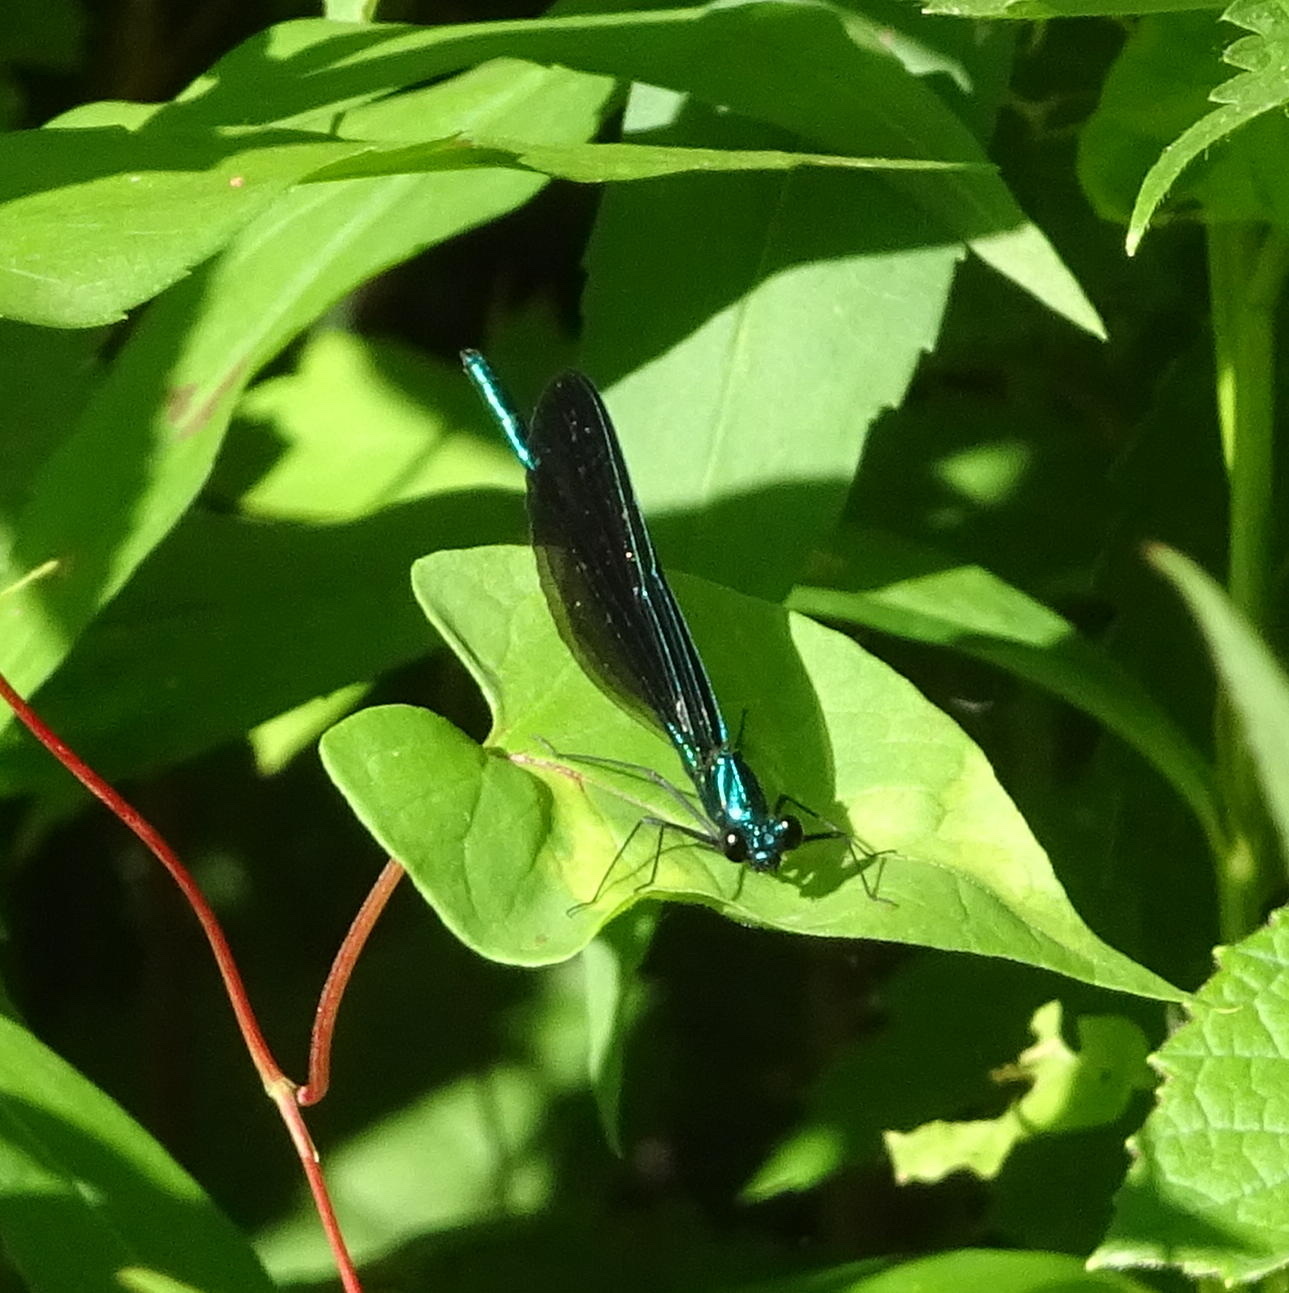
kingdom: Animalia
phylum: Arthropoda
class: Insecta
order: Odonata
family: Calopterygidae
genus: Calopteryx
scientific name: Calopteryx maculata
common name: Ebony jewelwing
